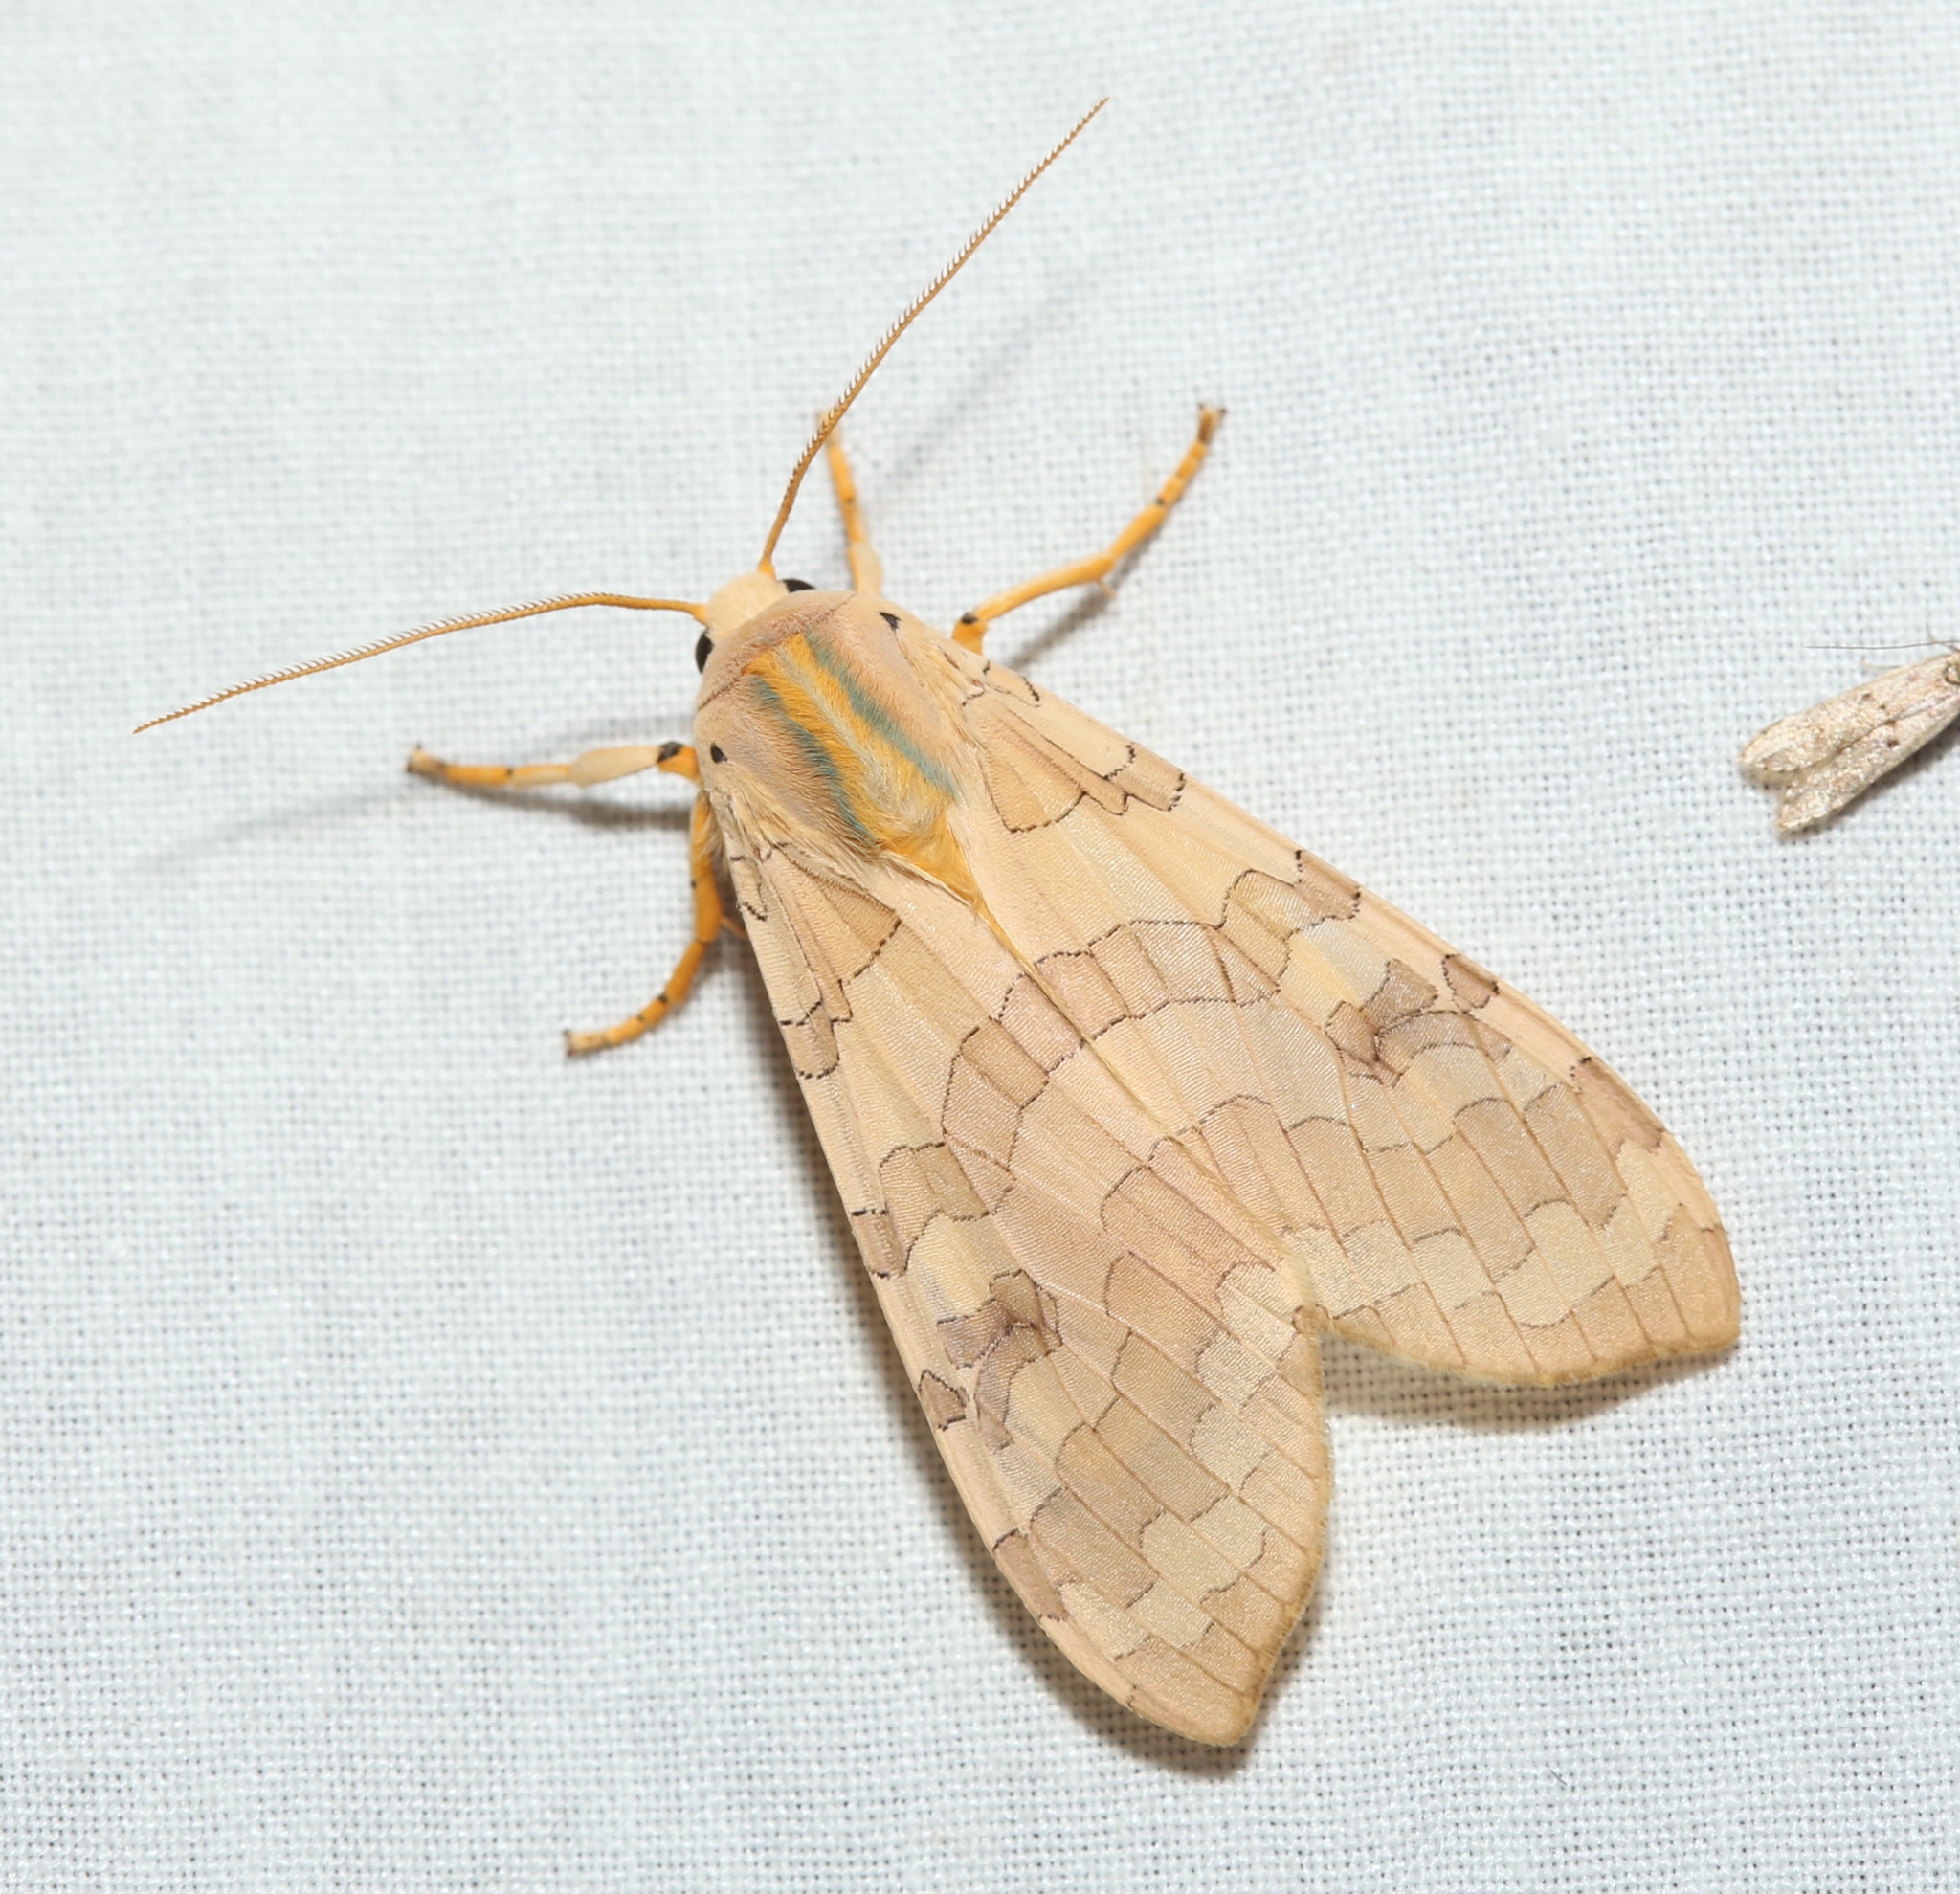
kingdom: Animalia
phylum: Arthropoda
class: Insecta
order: Lepidoptera
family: Erebidae
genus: Halysidota
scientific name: Halysidota
